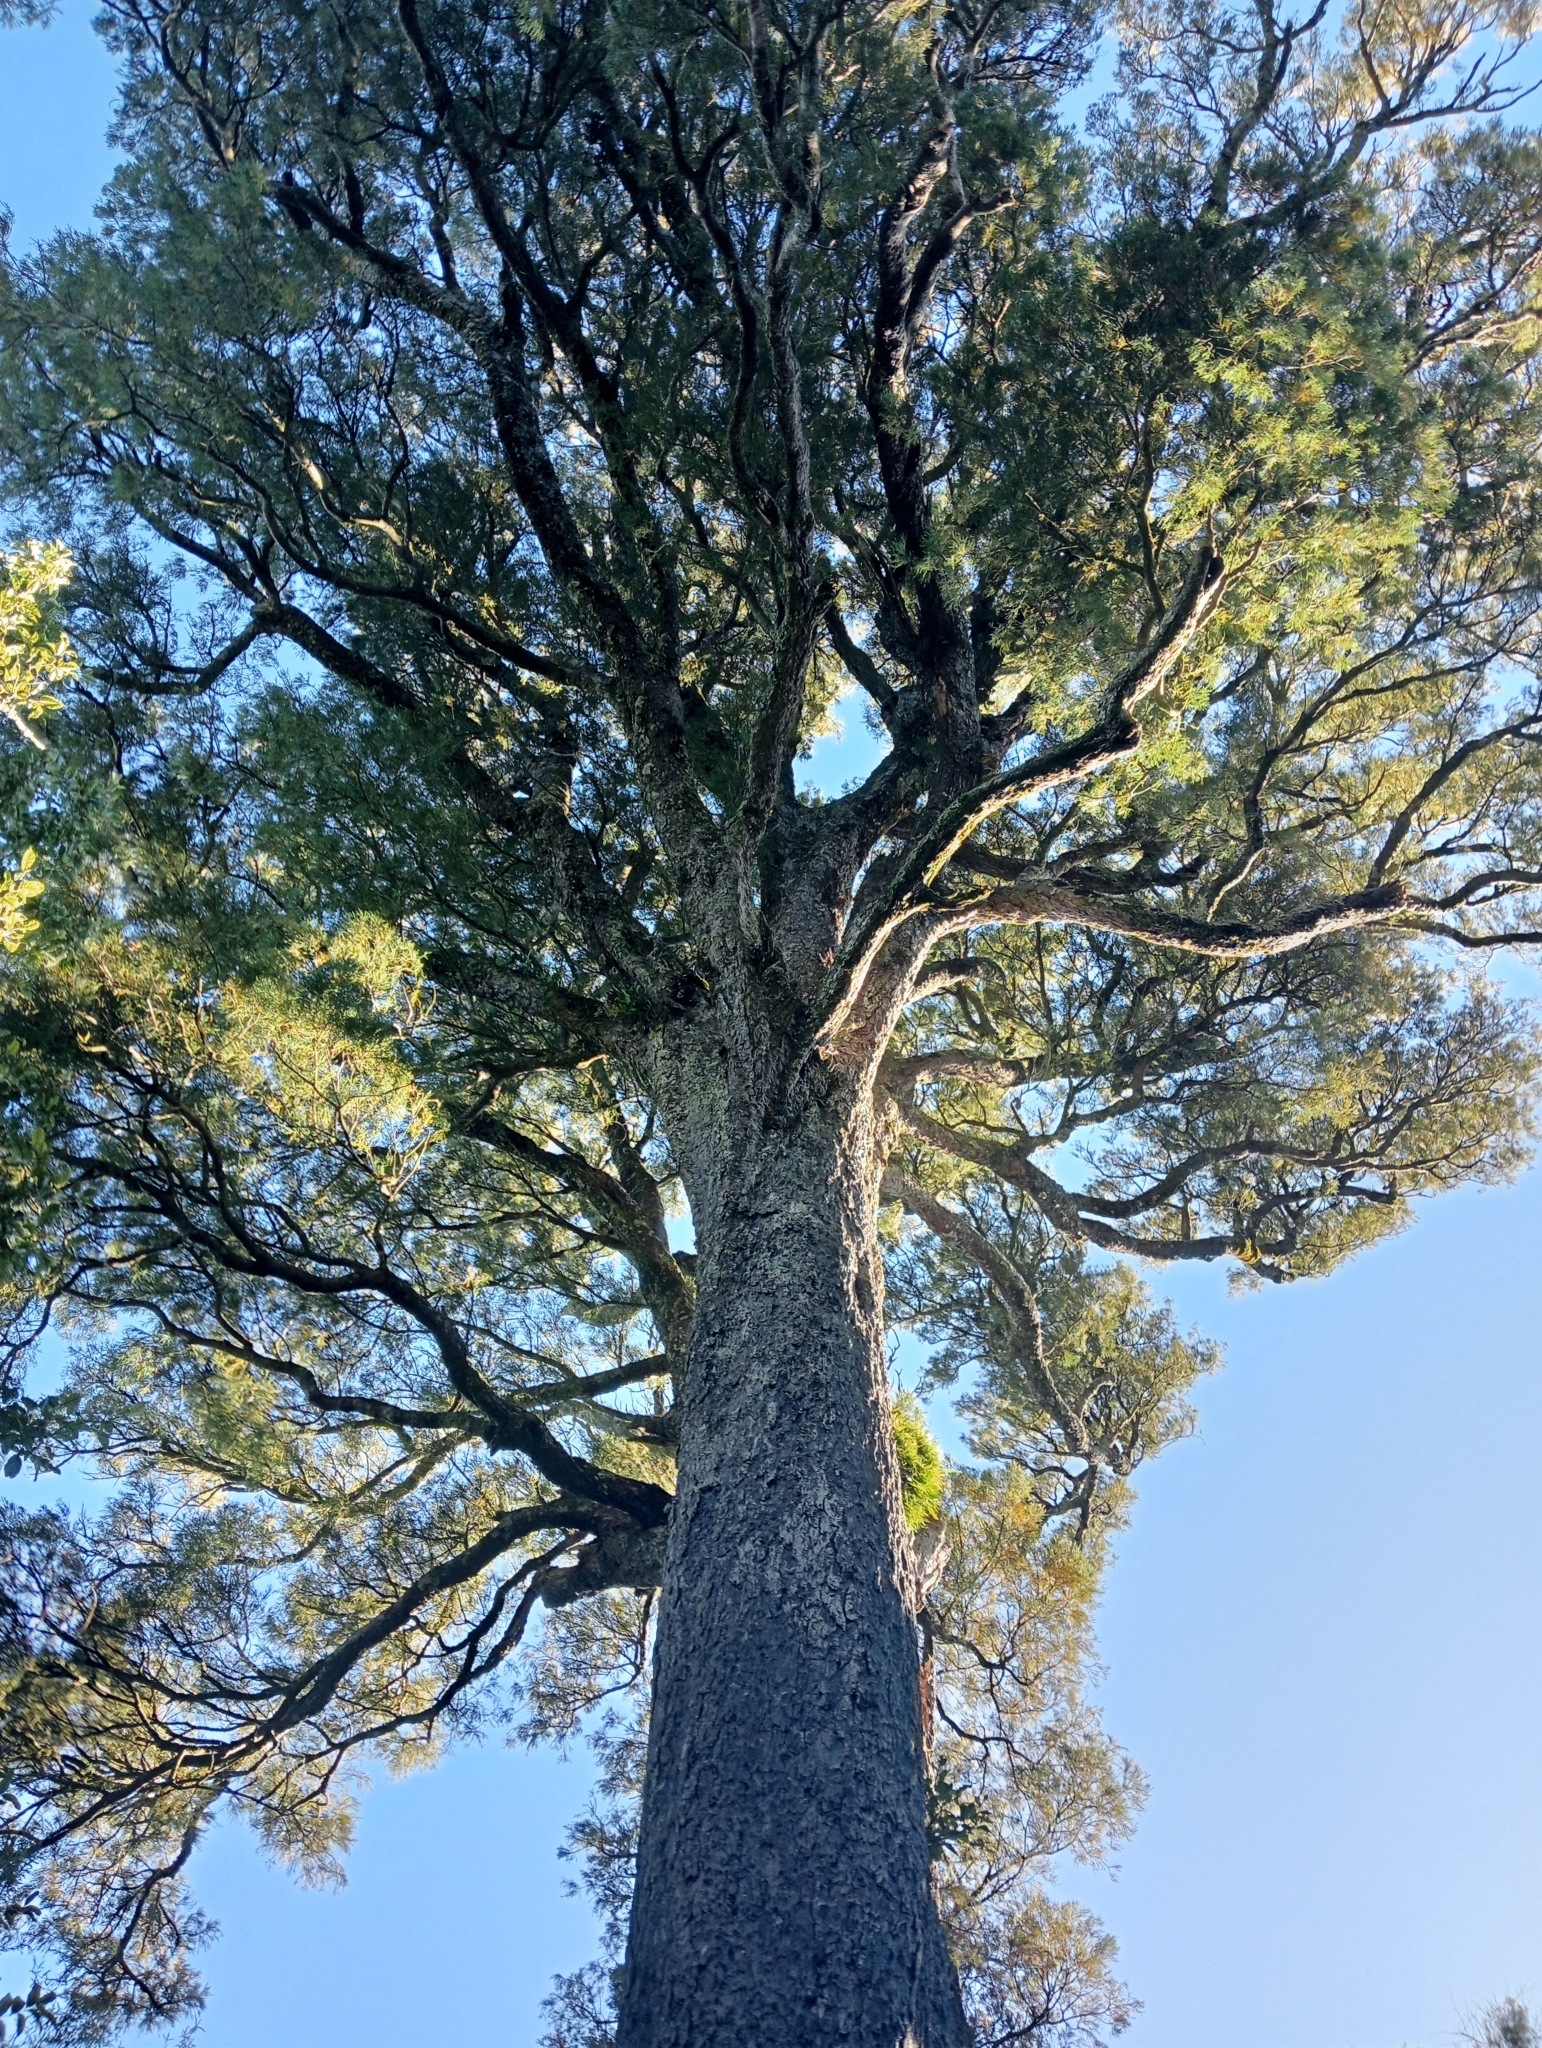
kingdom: Plantae
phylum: Tracheophyta
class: Pinopsida
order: Pinales
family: Podocarpaceae
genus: Dacrycarpus
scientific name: Dacrycarpus dacrydioides
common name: White pine
